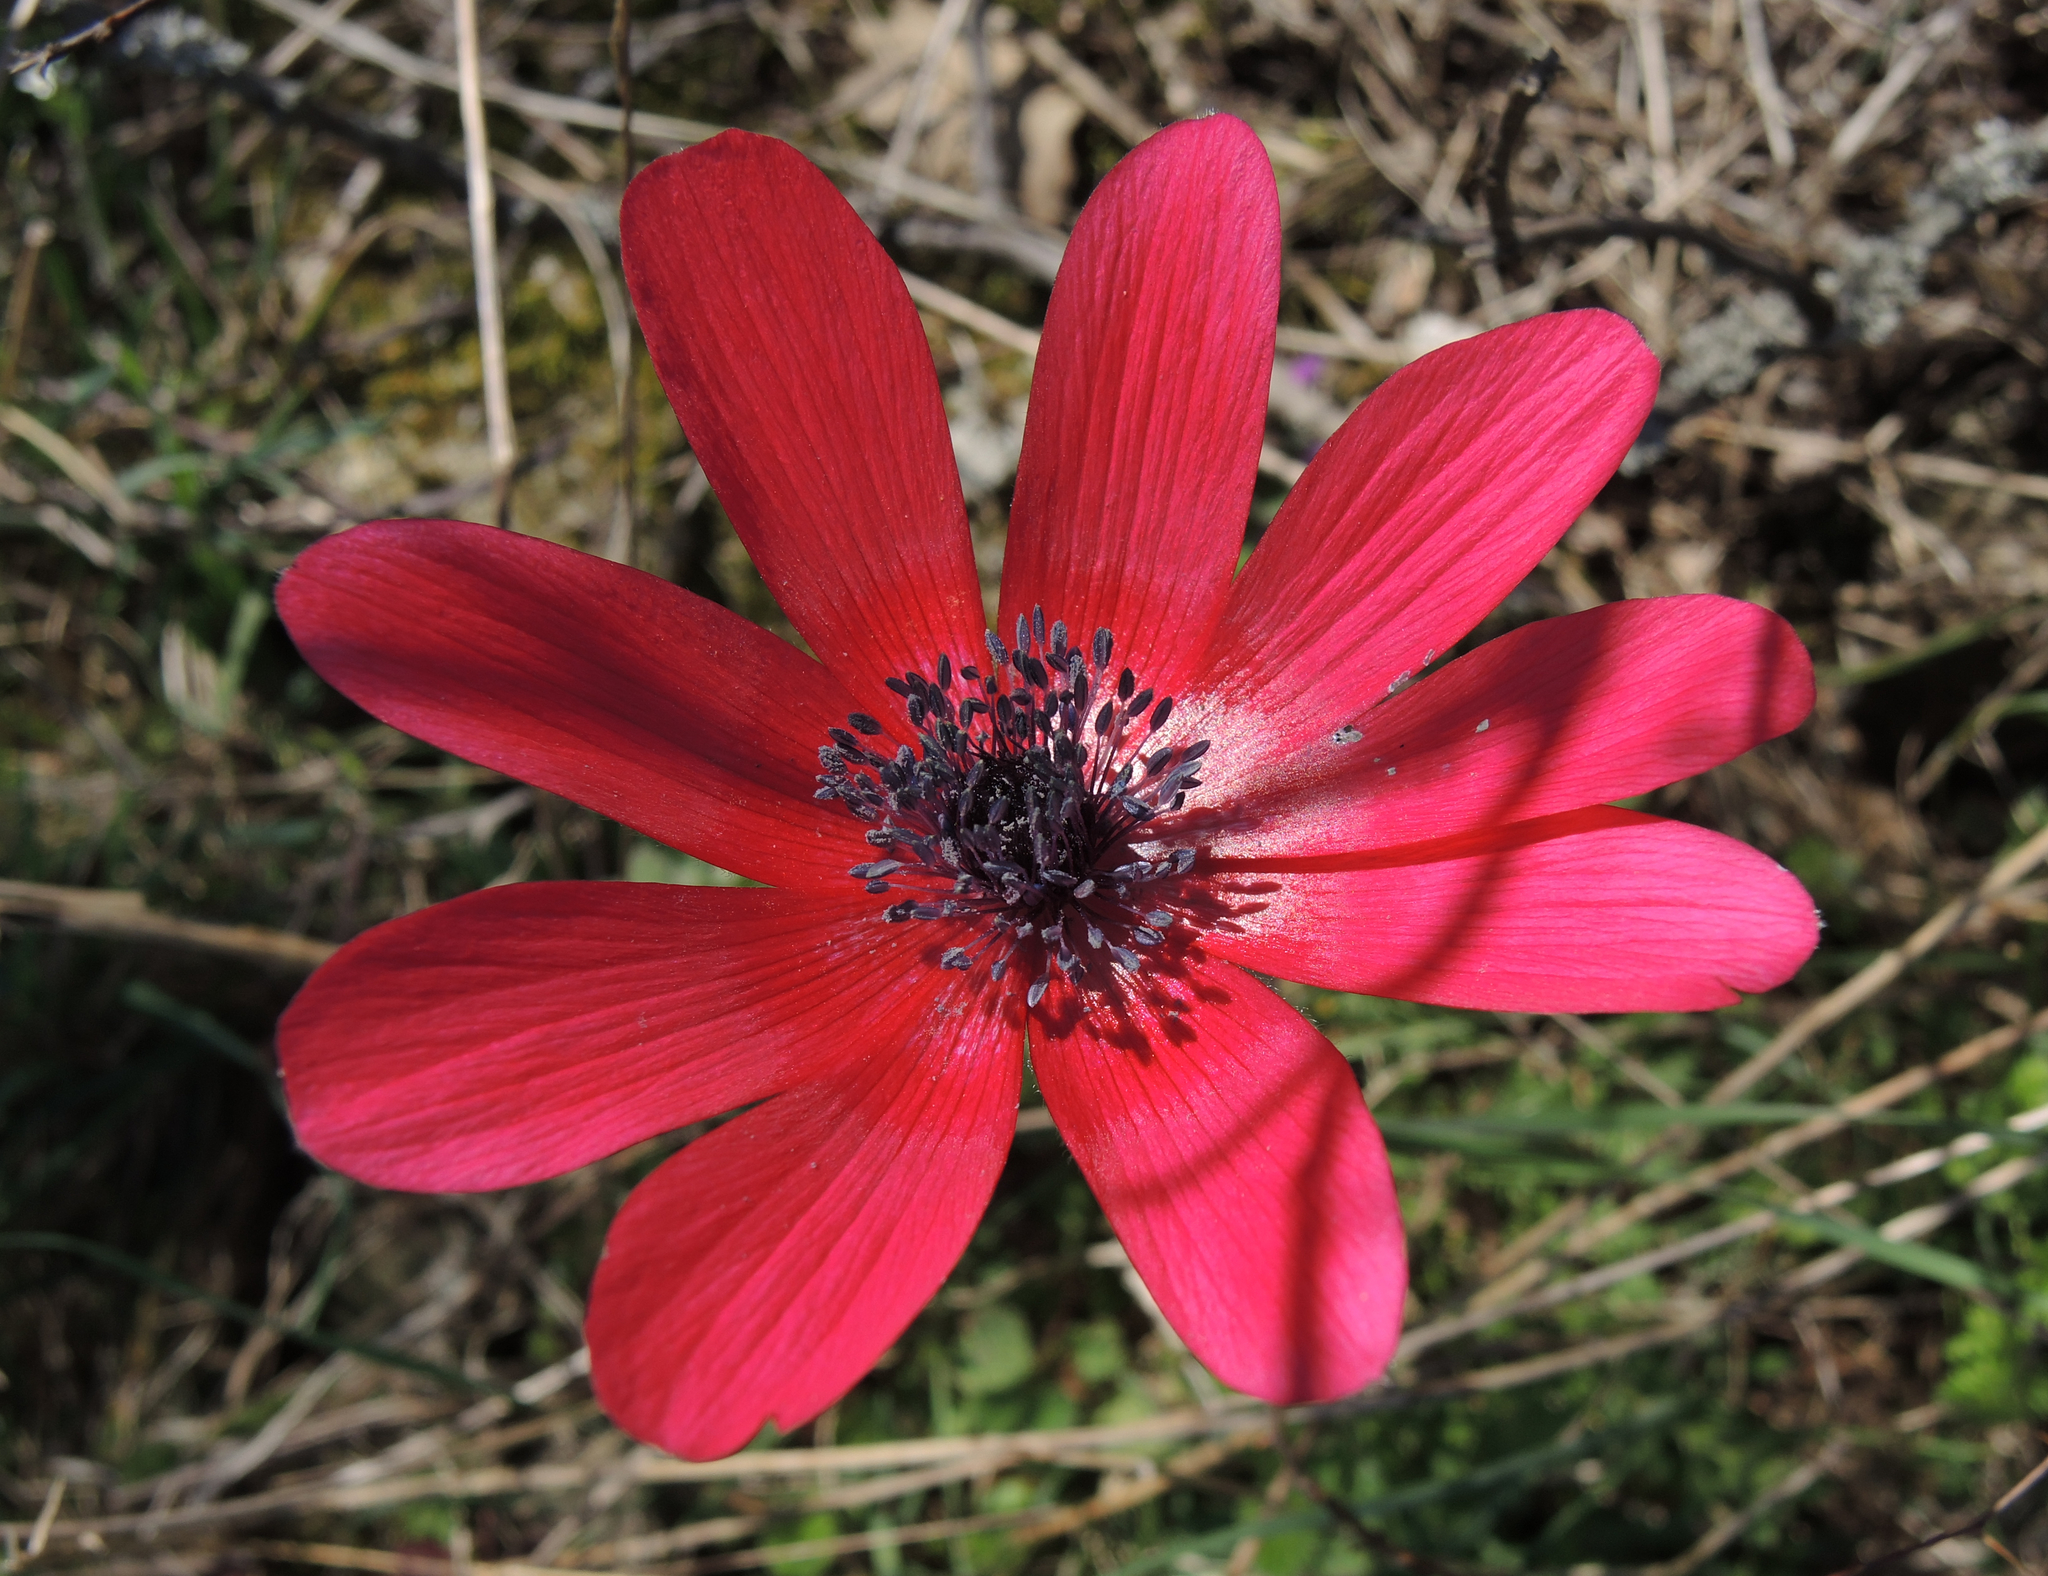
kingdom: Plantae
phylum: Tracheophyta
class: Magnoliopsida
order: Ranunculales
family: Ranunculaceae
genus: Anemone
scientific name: Anemone pavonina
